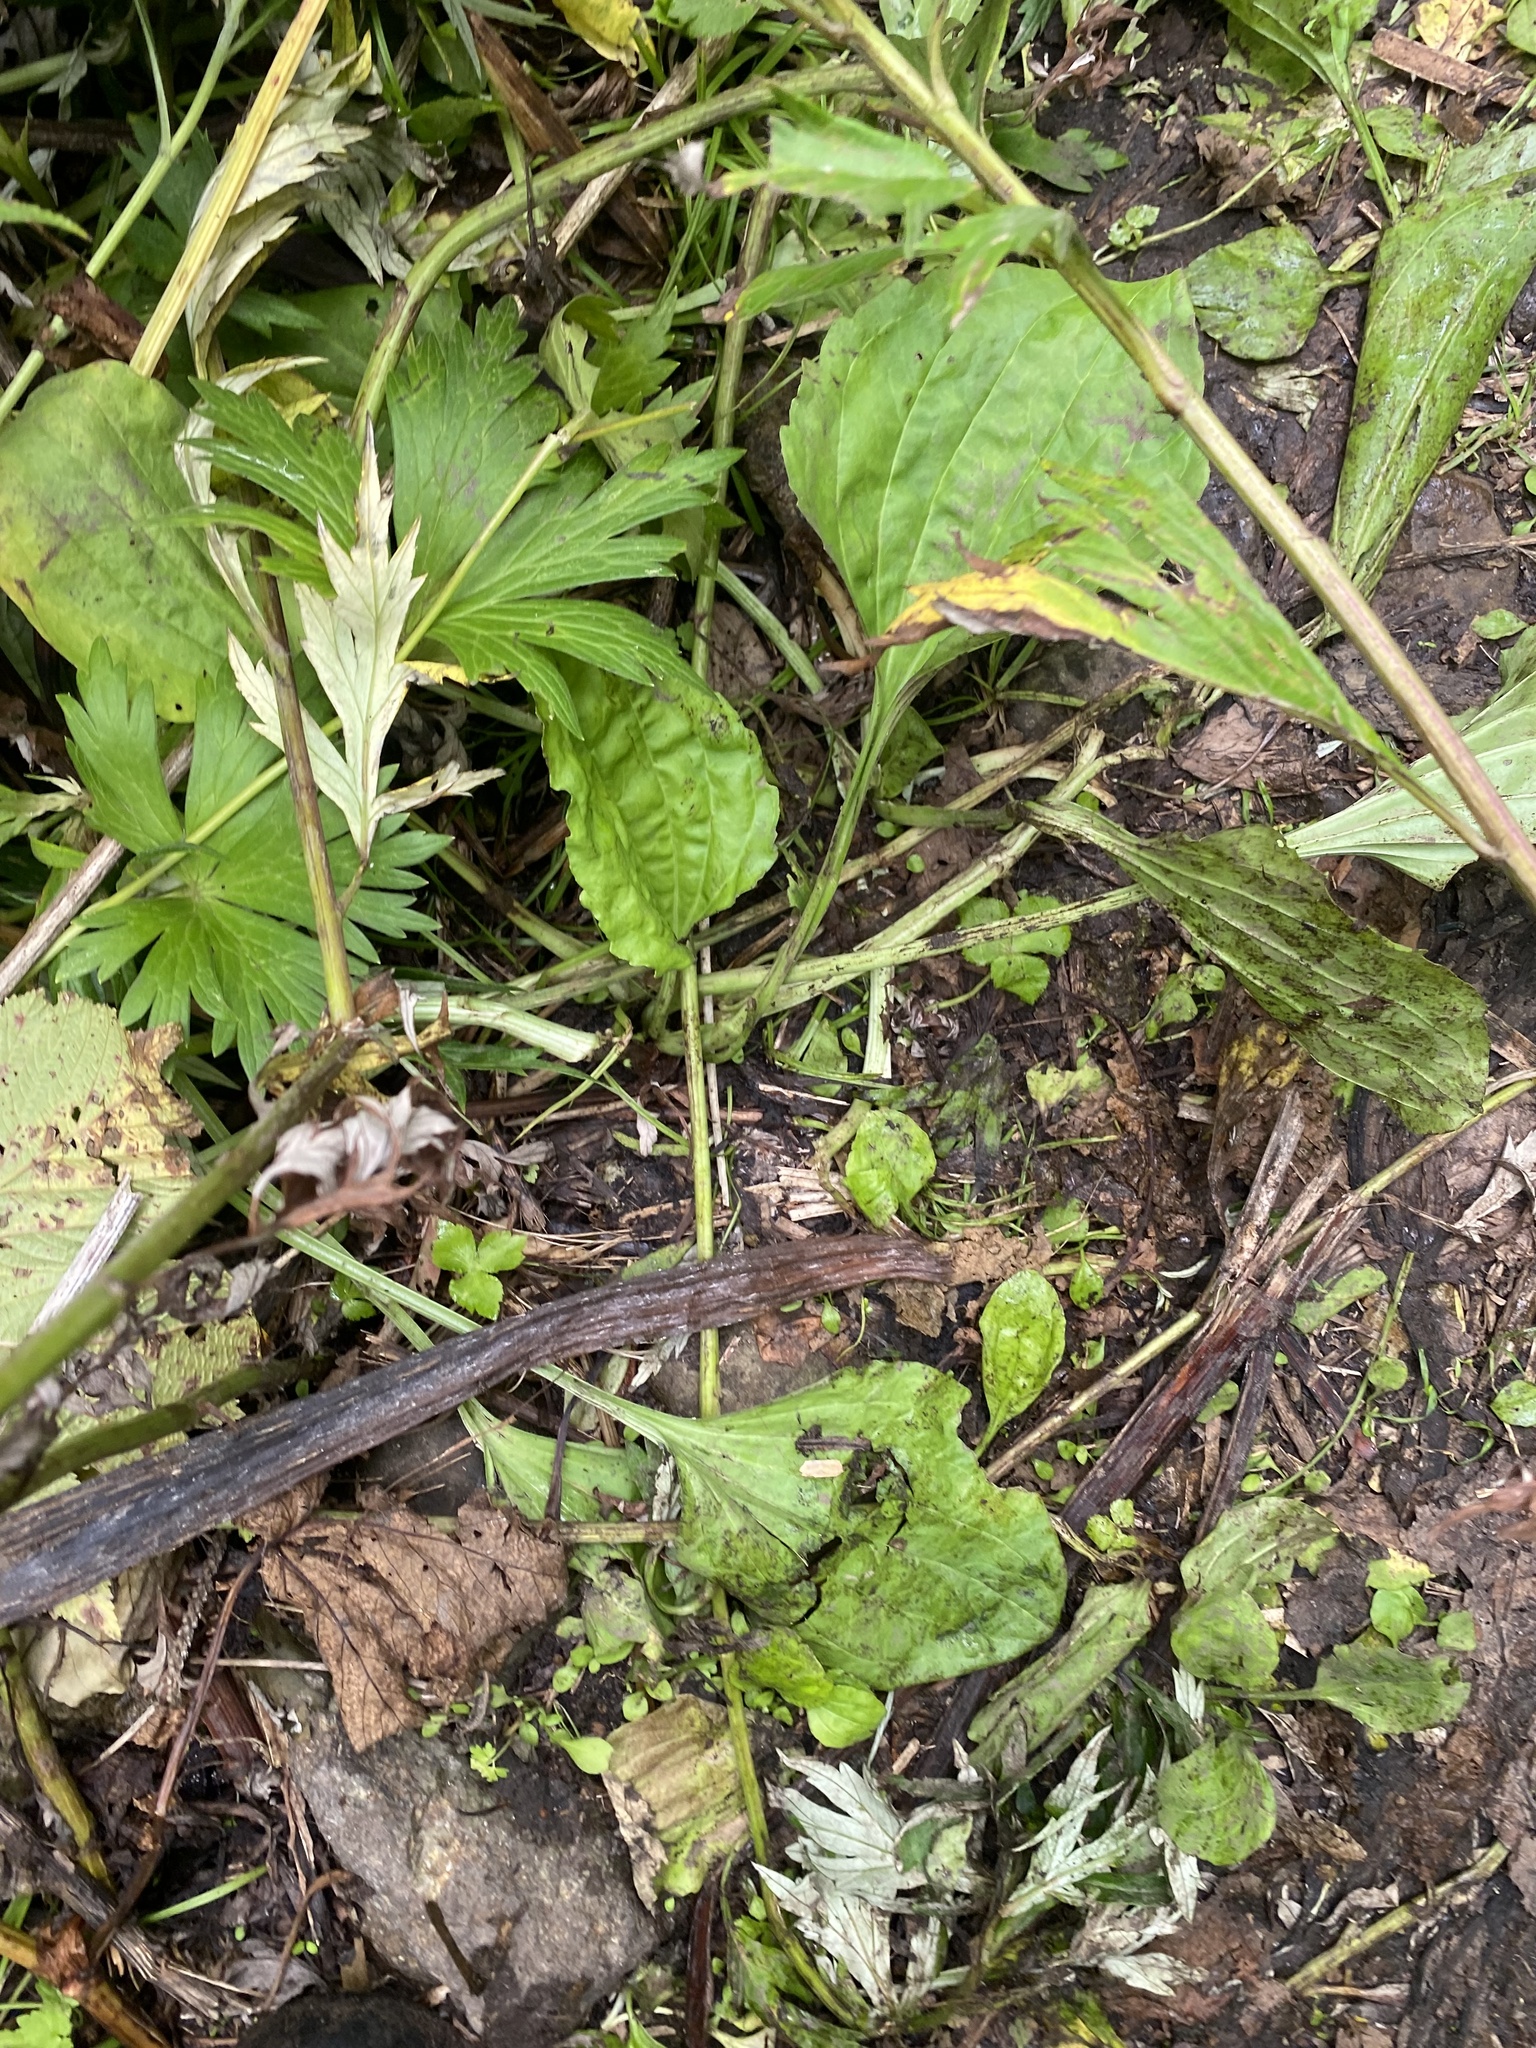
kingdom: Plantae
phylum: Tracheophyta
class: Magnoliopsida
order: Lamiales
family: Plantaginaceae
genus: Plantago
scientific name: Plantago major
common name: Common plantain
